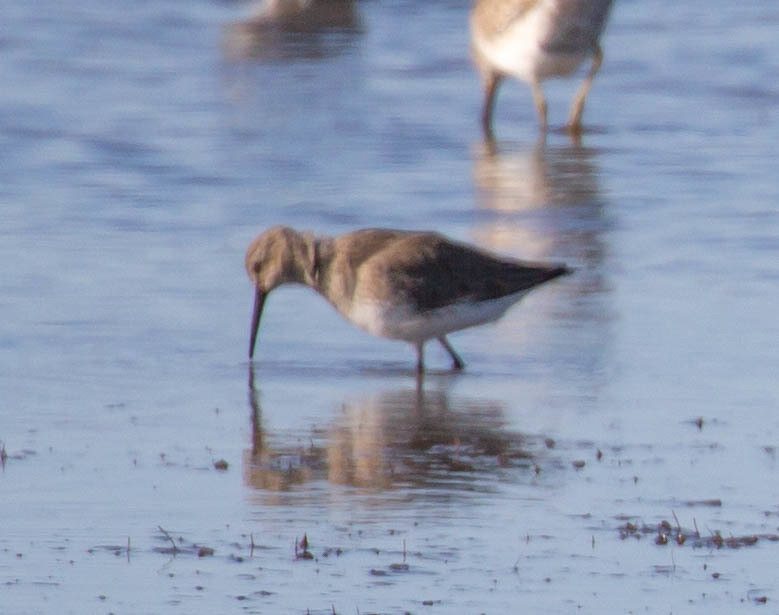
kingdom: Animalia
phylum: Chordata
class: Aves
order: Charadriiformes
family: Scolopacidae
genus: Calidris
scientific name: Calidris alpina
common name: Dunlin
